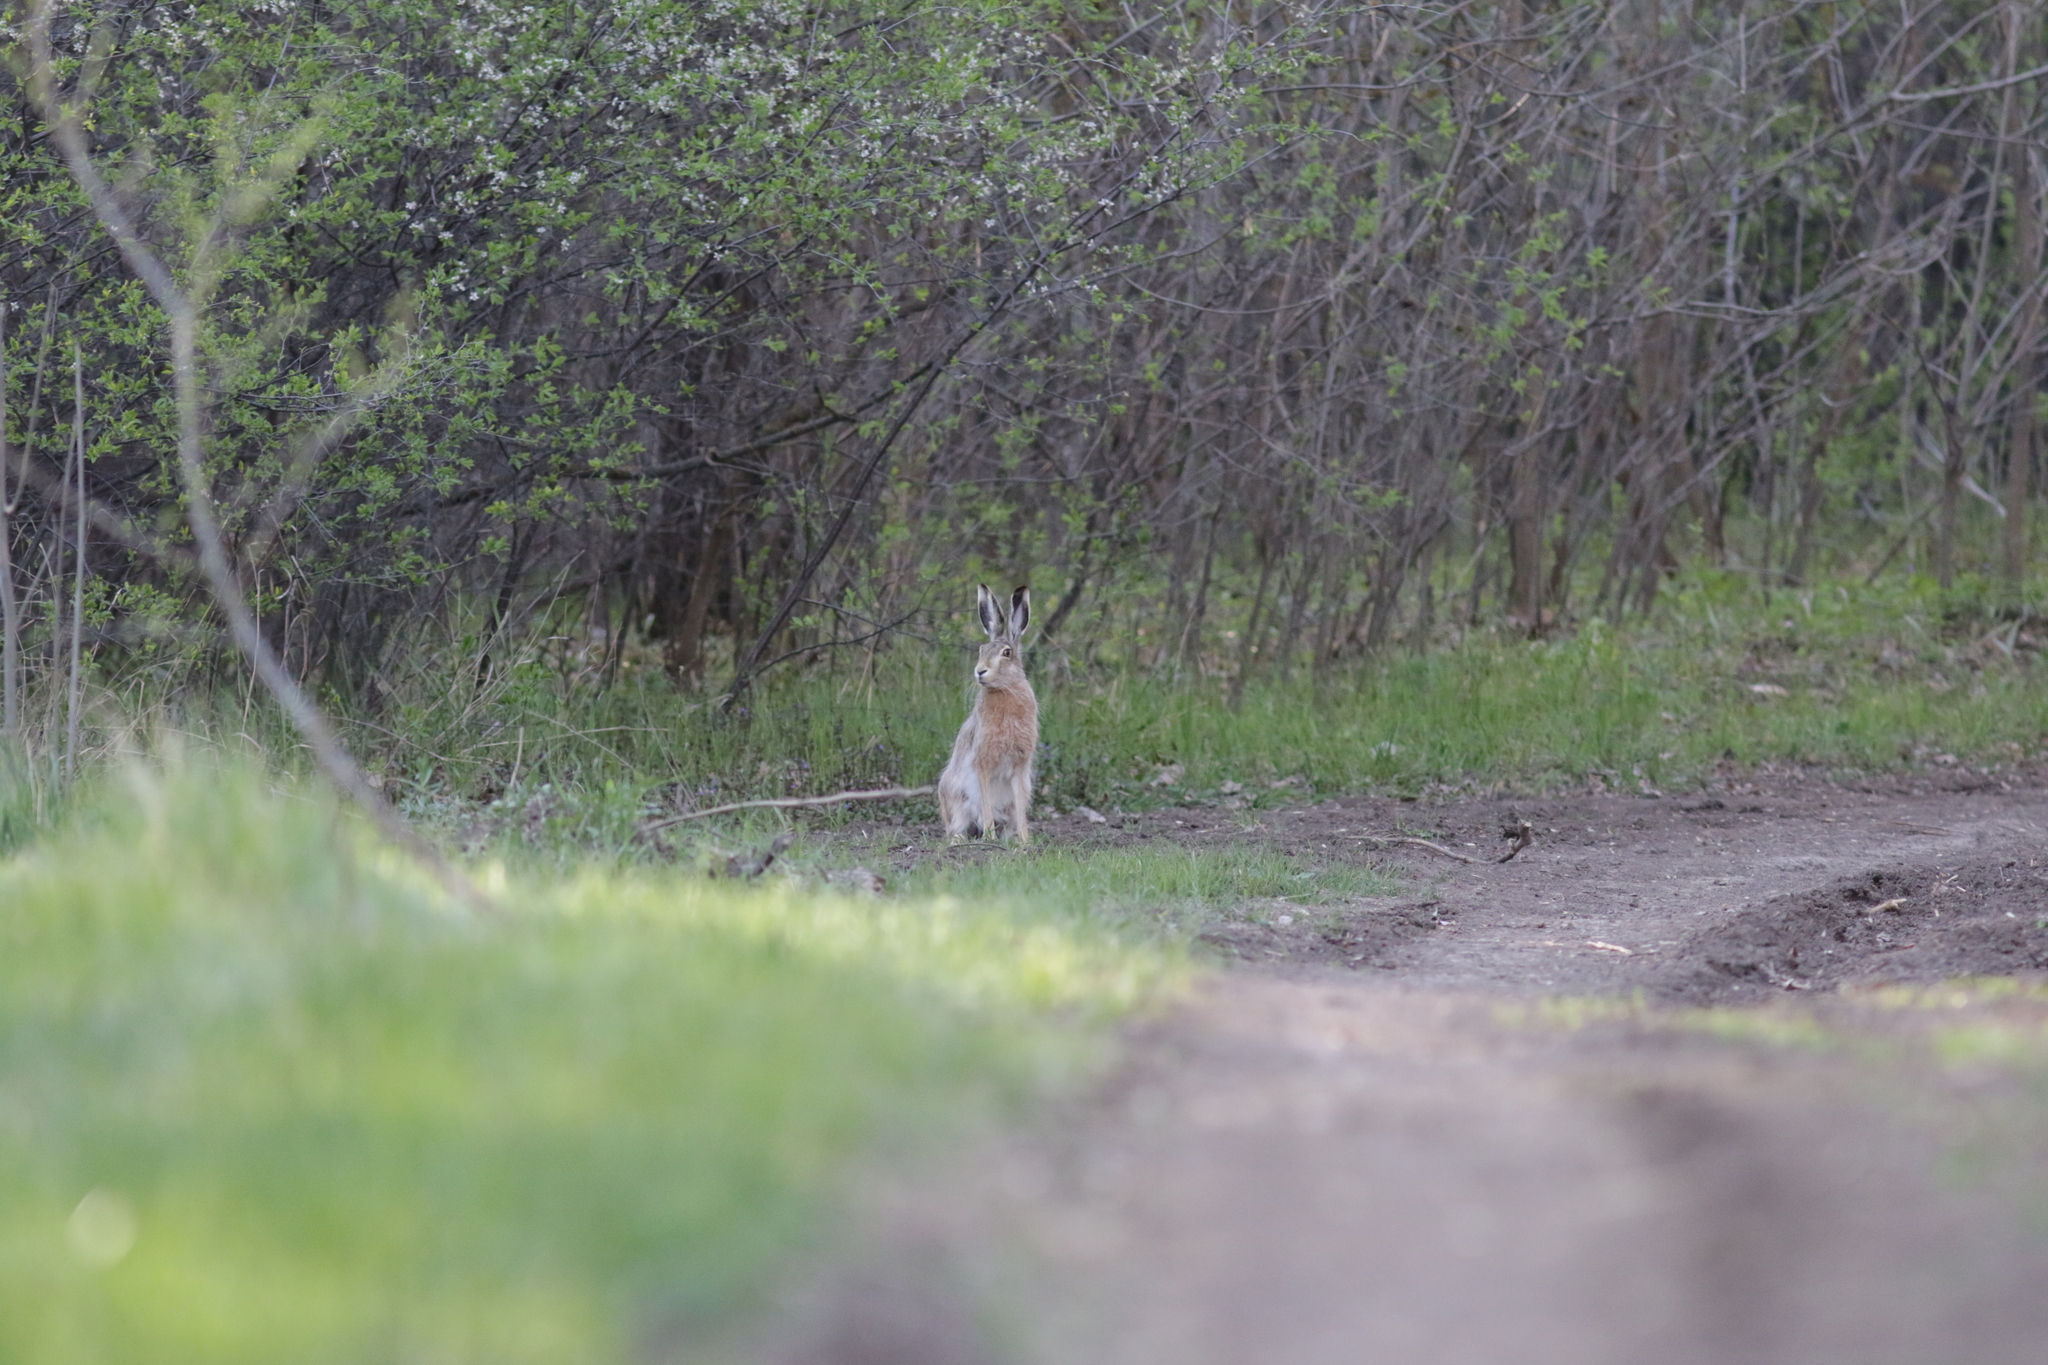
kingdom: Animalia
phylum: Chordata
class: Mammalia
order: Lagomorpha
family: Leporidae
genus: Lepus
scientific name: Lepus europaeus
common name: European hare
